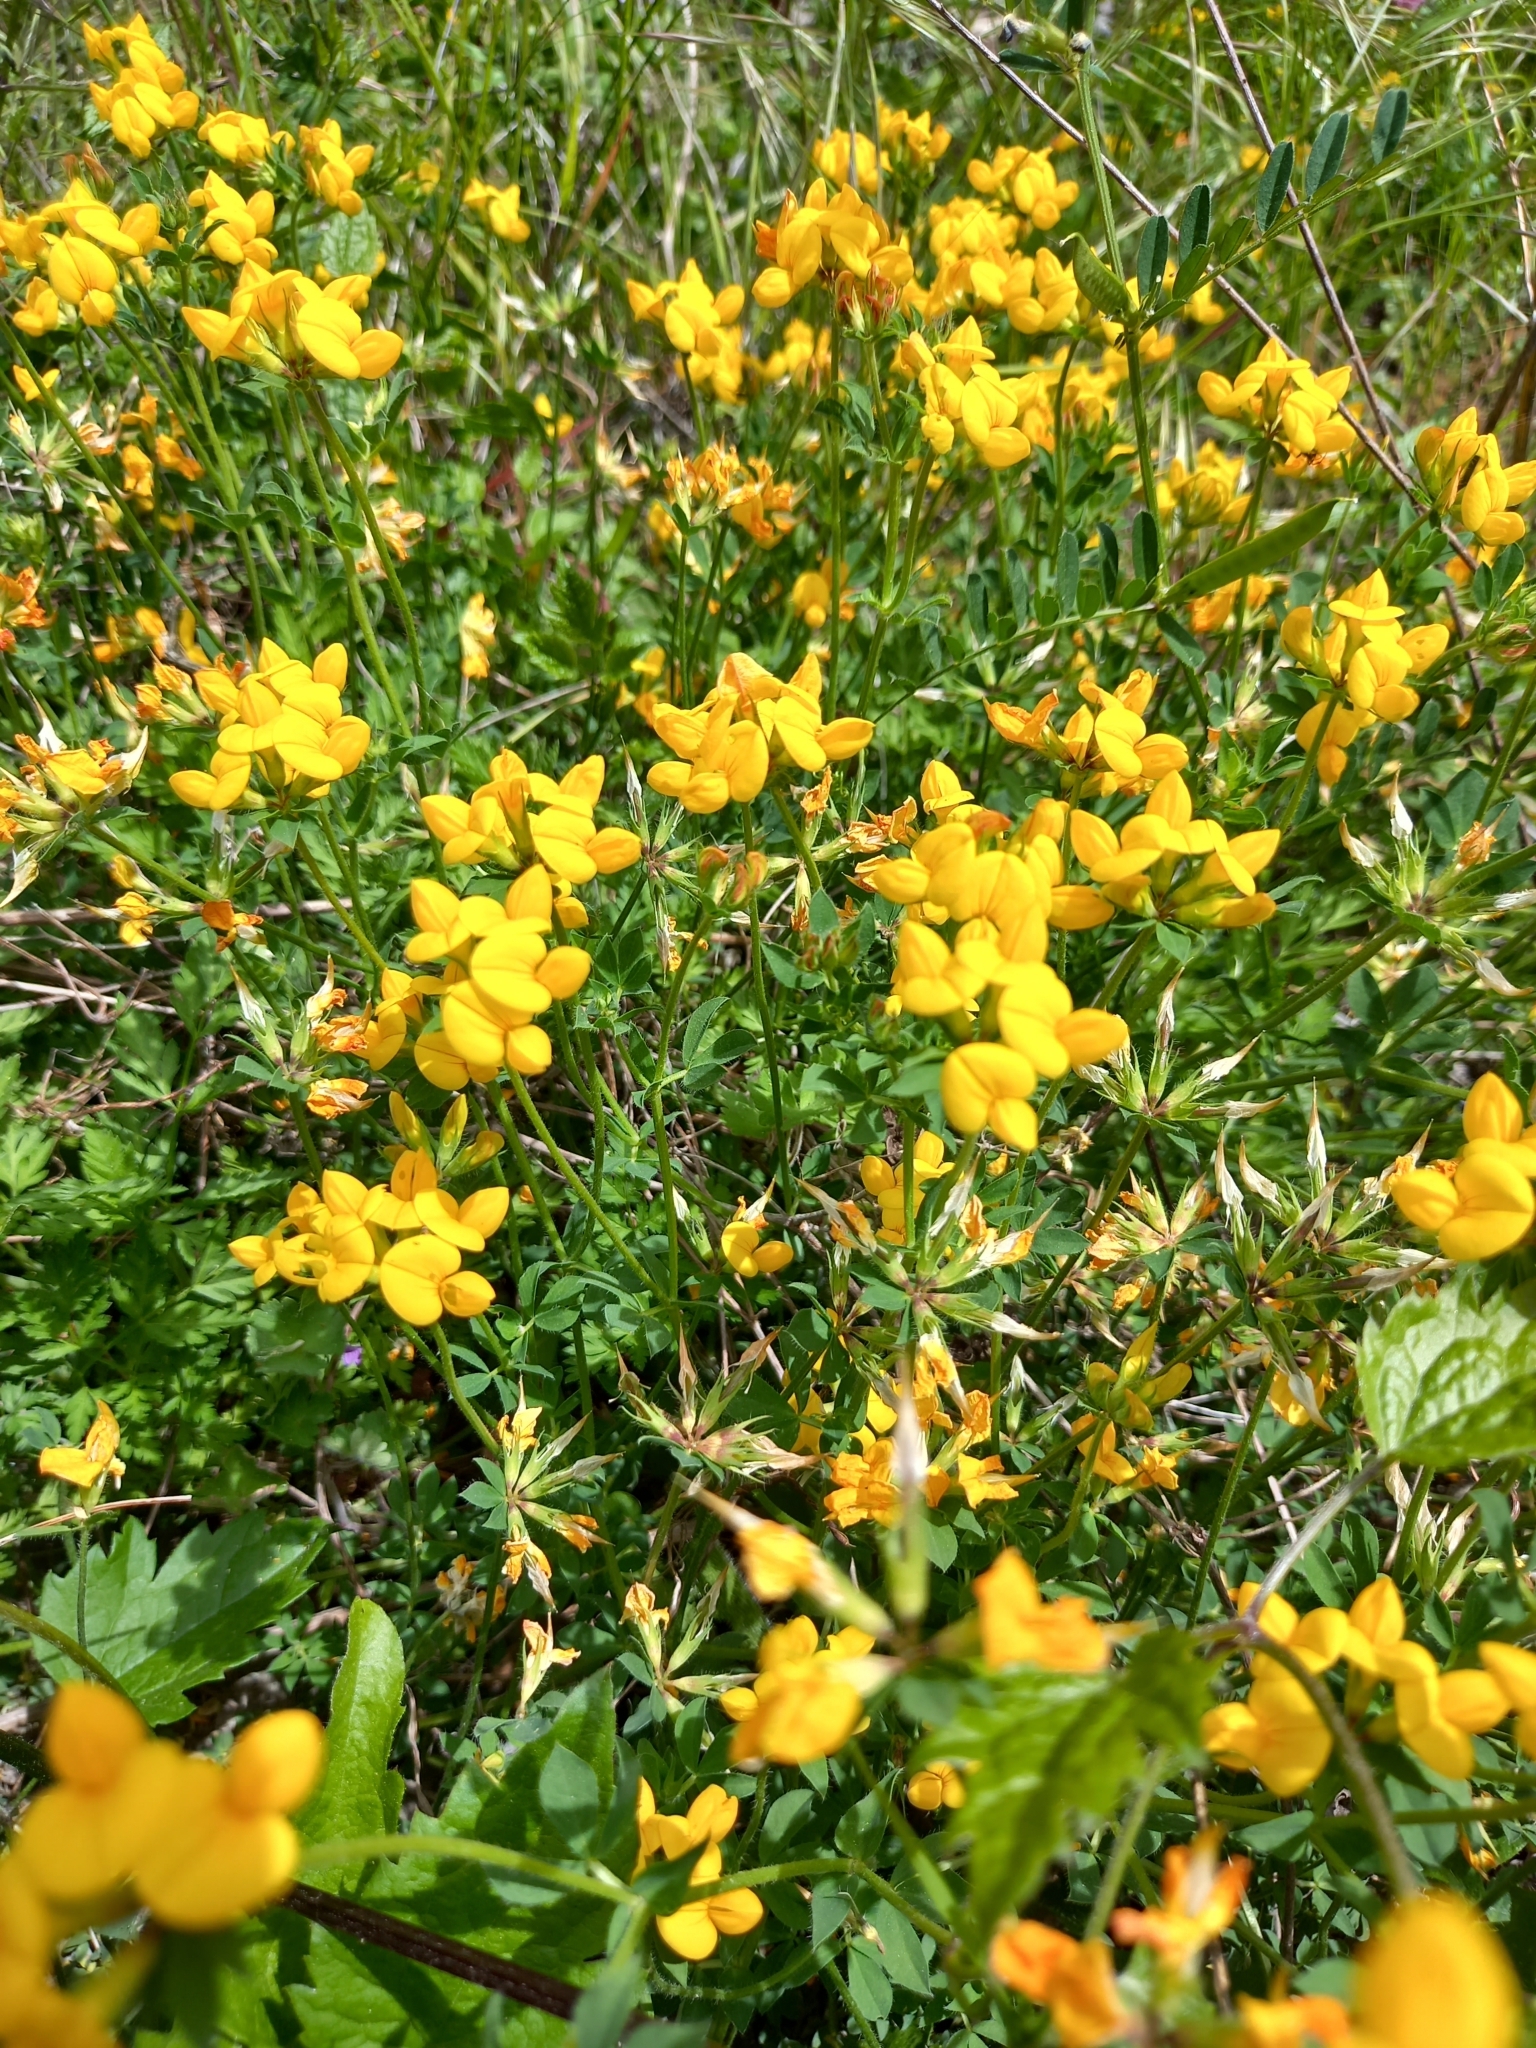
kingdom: Plantae
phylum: Tracheophyta
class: Magnoliopsida
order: Fabales
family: Fabaceae
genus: Lotus
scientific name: Lotus corniculatus
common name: Common bird's-foot-trefoil
